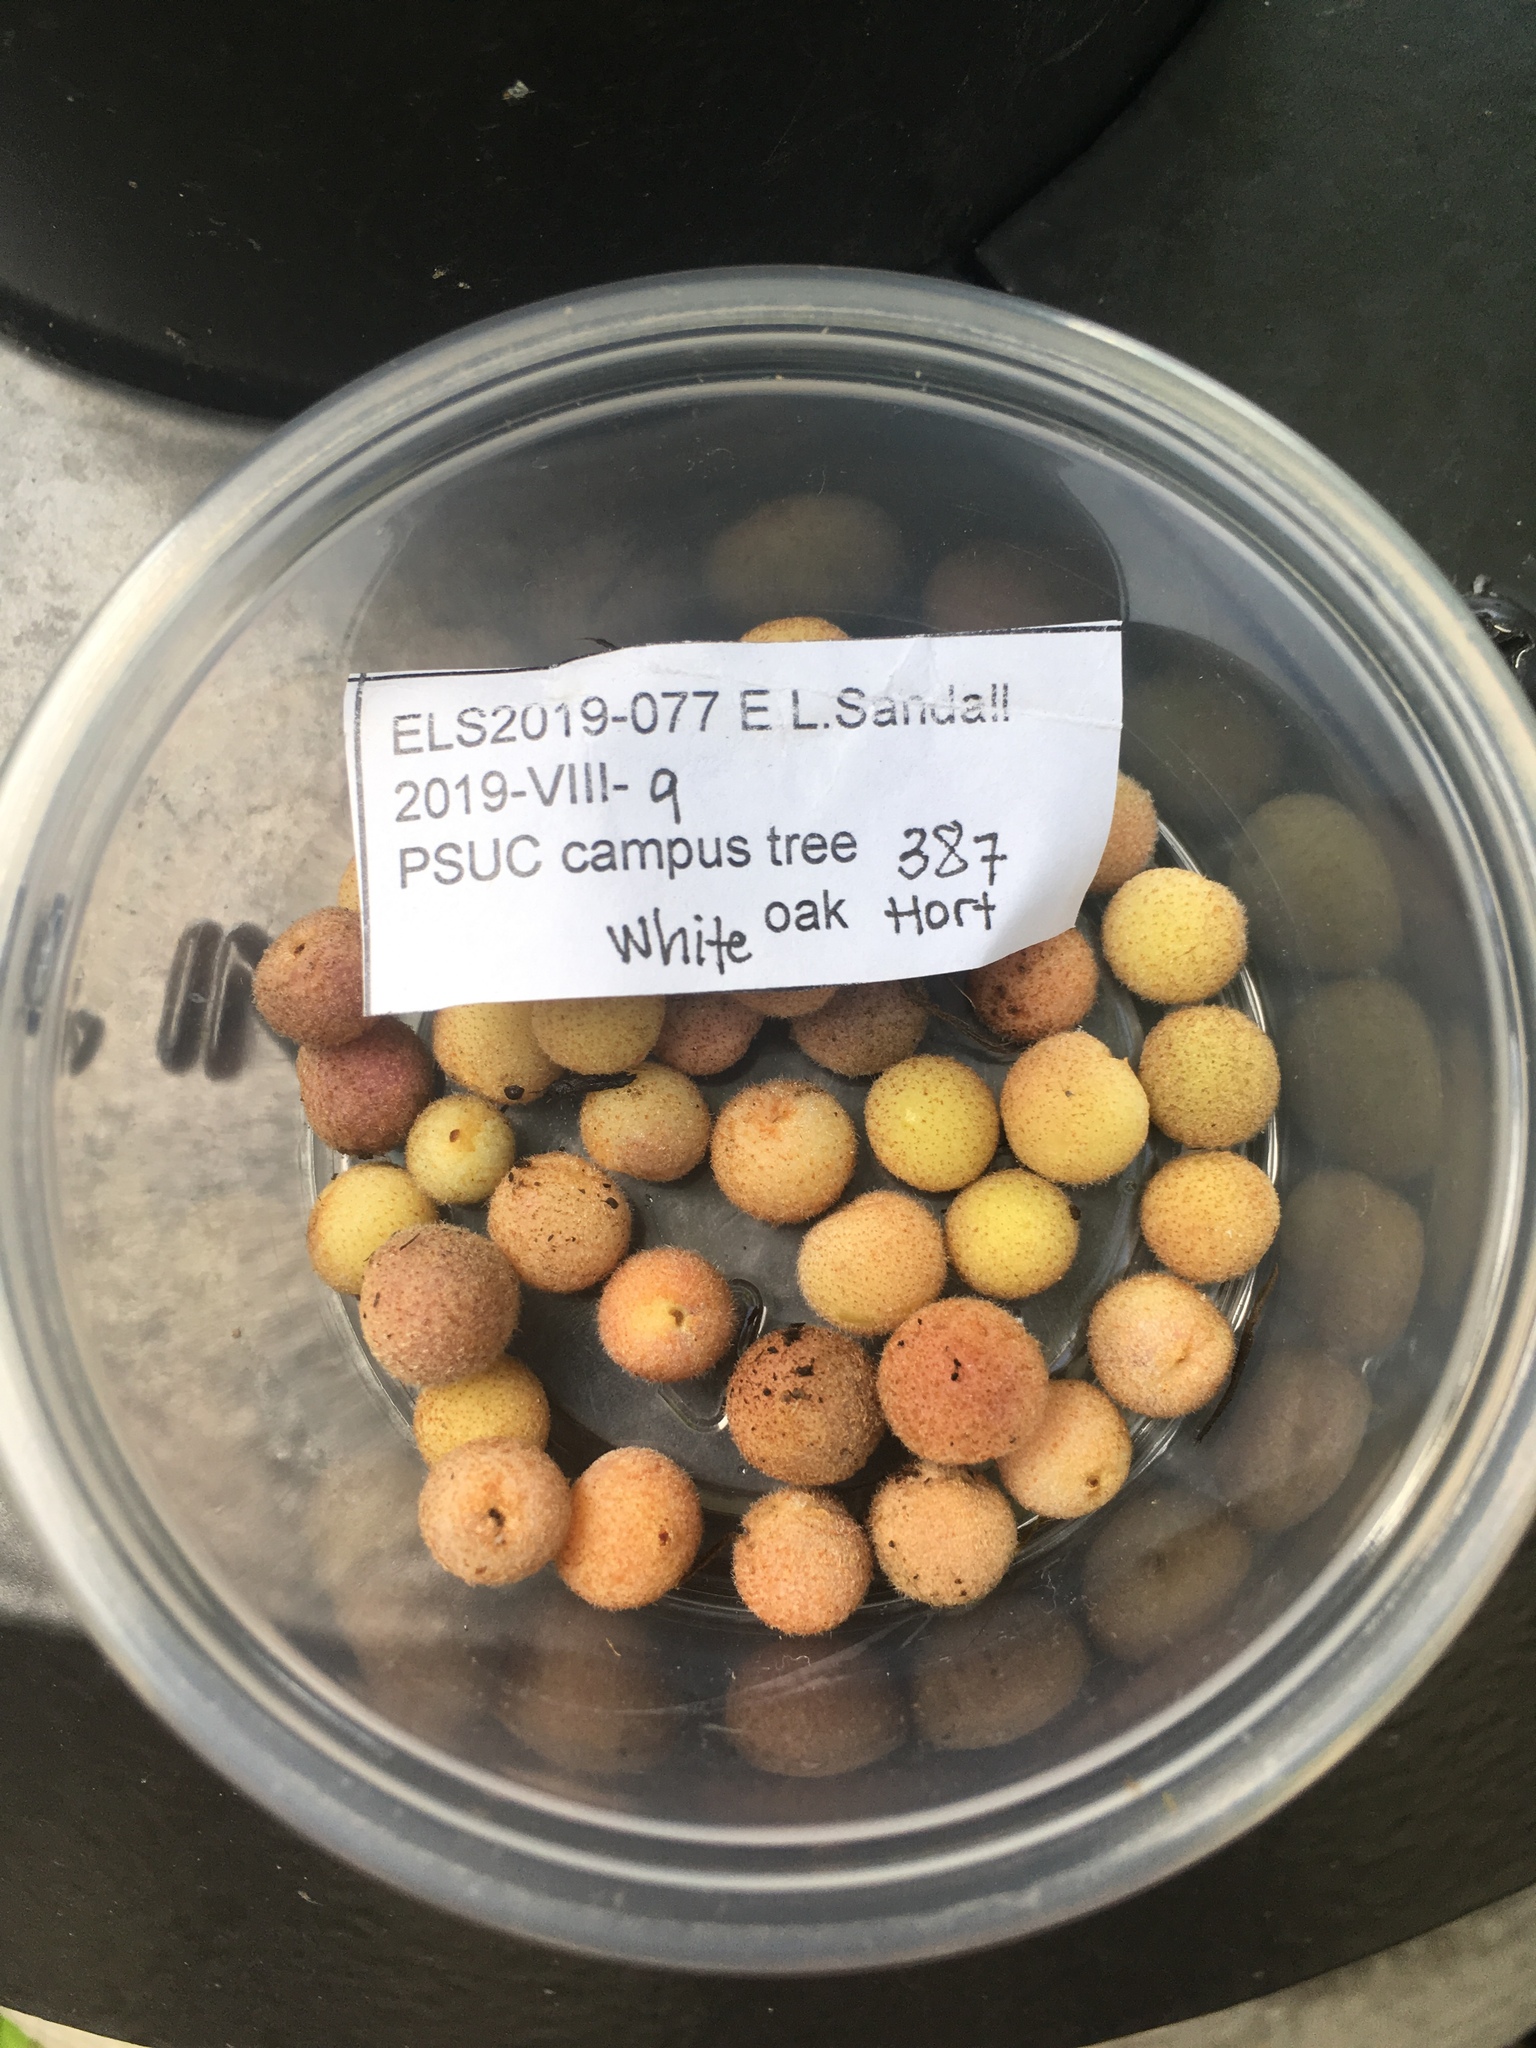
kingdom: Animalia
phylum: Arthropoda
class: Insecta
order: Hymenoptera
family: Cynipidae
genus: Philonix
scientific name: Philonix fulvicollis
